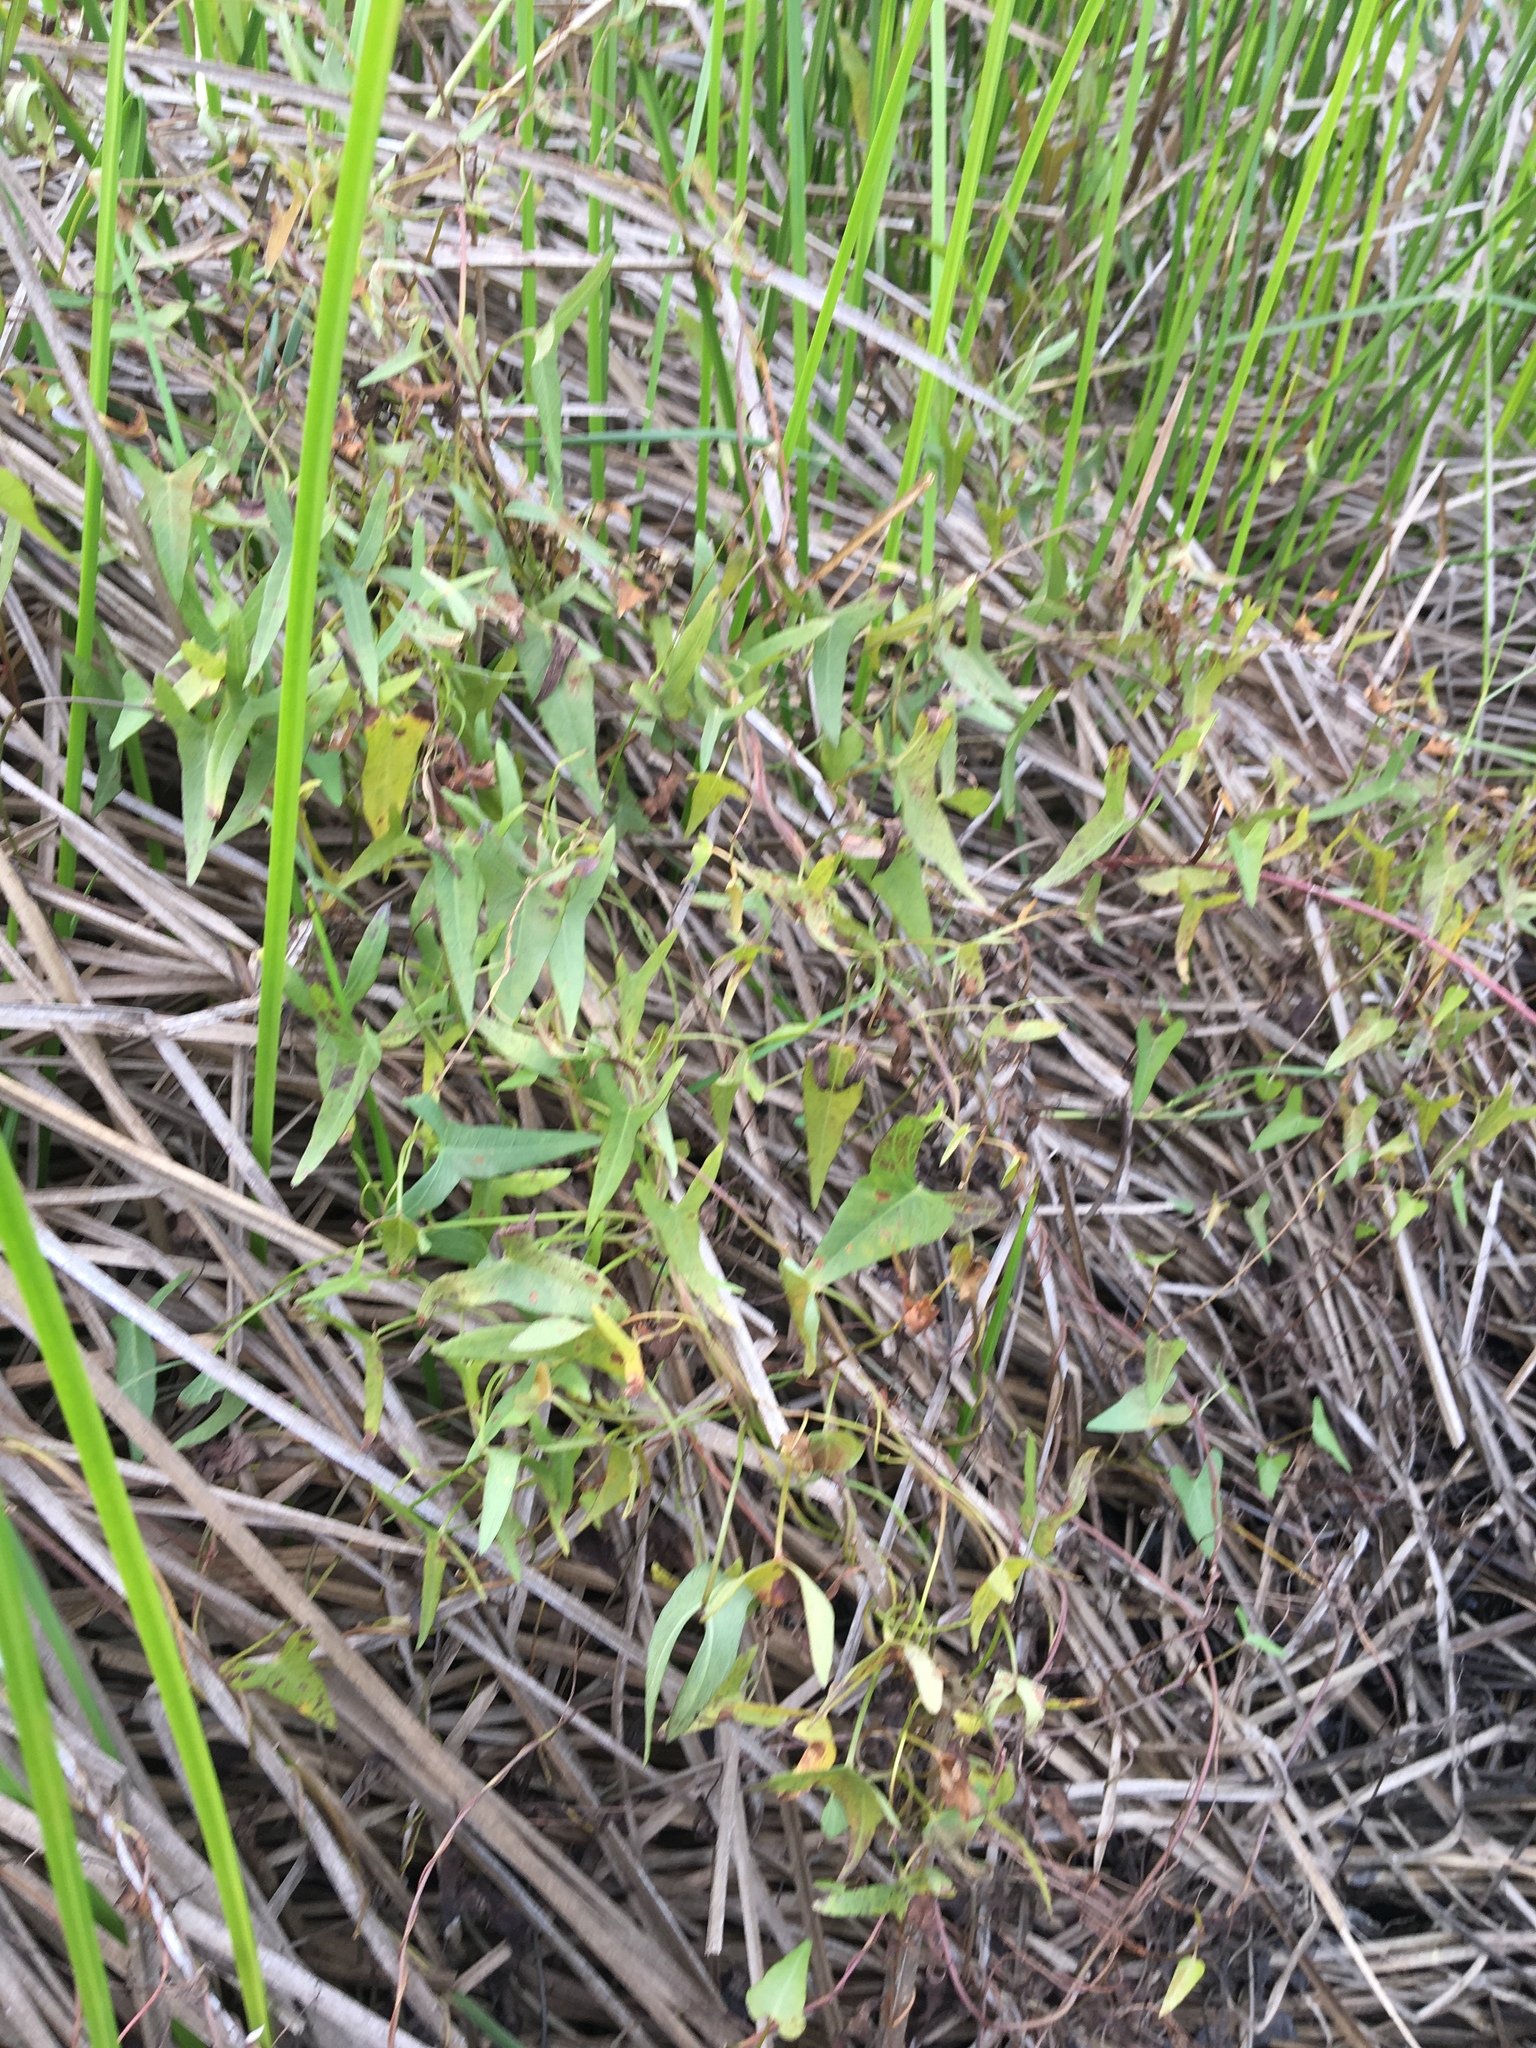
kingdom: Plantae
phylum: Tracheophyta
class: Magnoliopsida
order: Solanales
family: Convolvulaceae
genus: Ipomoea
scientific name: Ipomoea sagittata
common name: Saltmarsh morning glory
